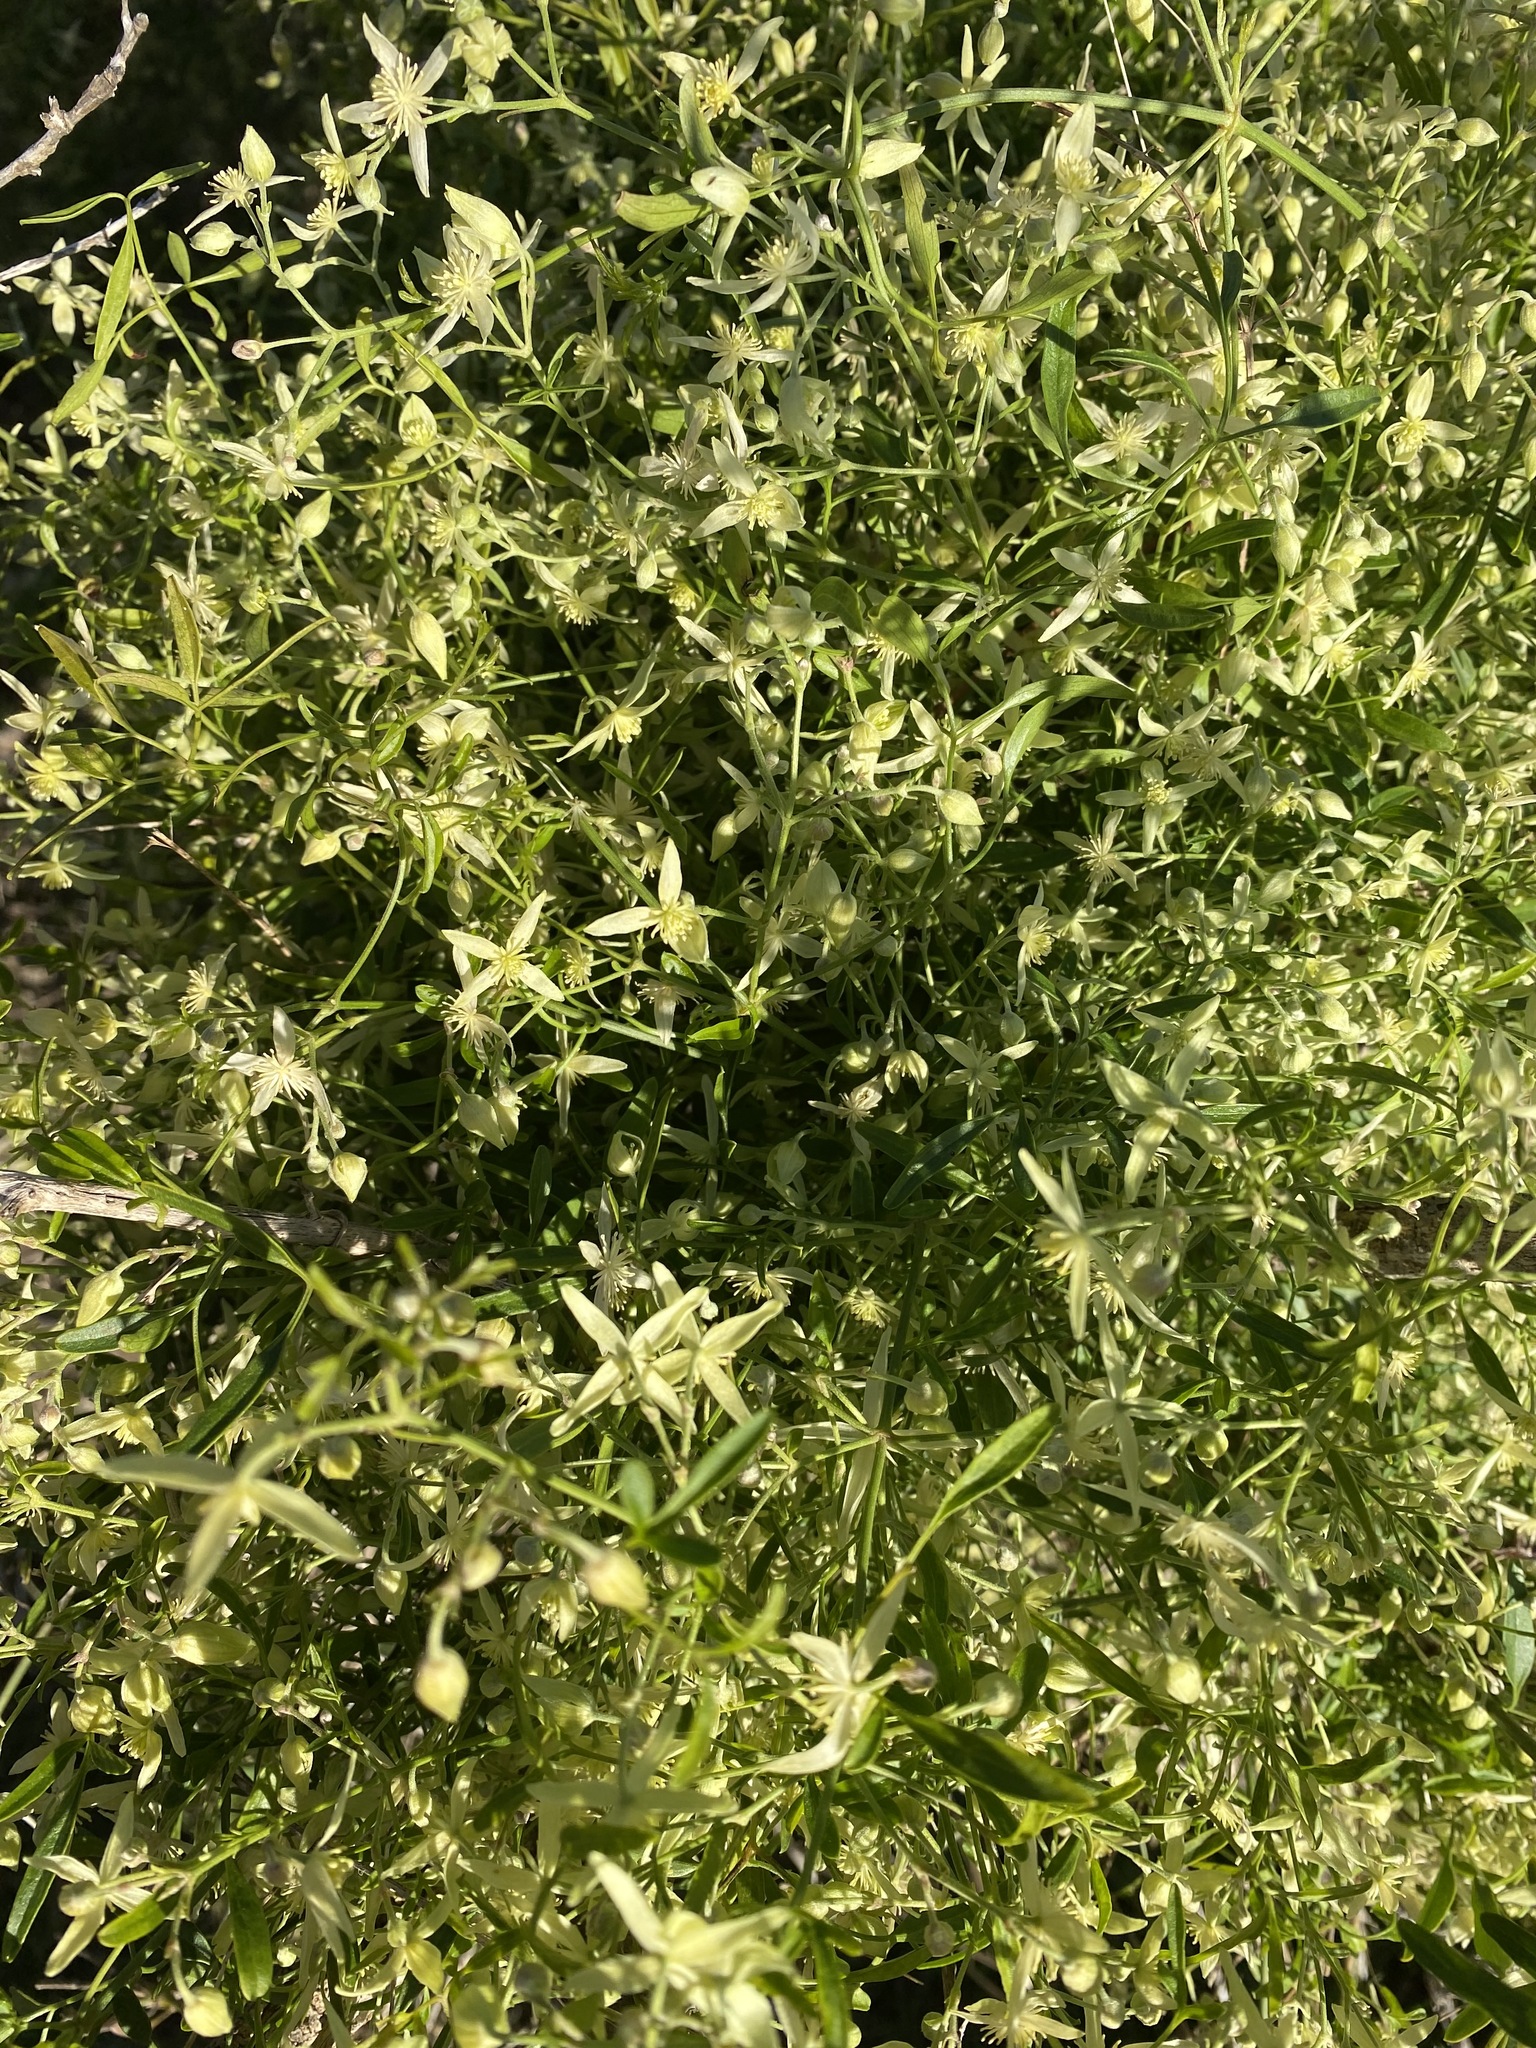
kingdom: Plantae
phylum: Tracheophyta
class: Magnoliopsida
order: Ranunculales
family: Ranunculaceae
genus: Clematis
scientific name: Clematis microphylla
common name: Headachevine
